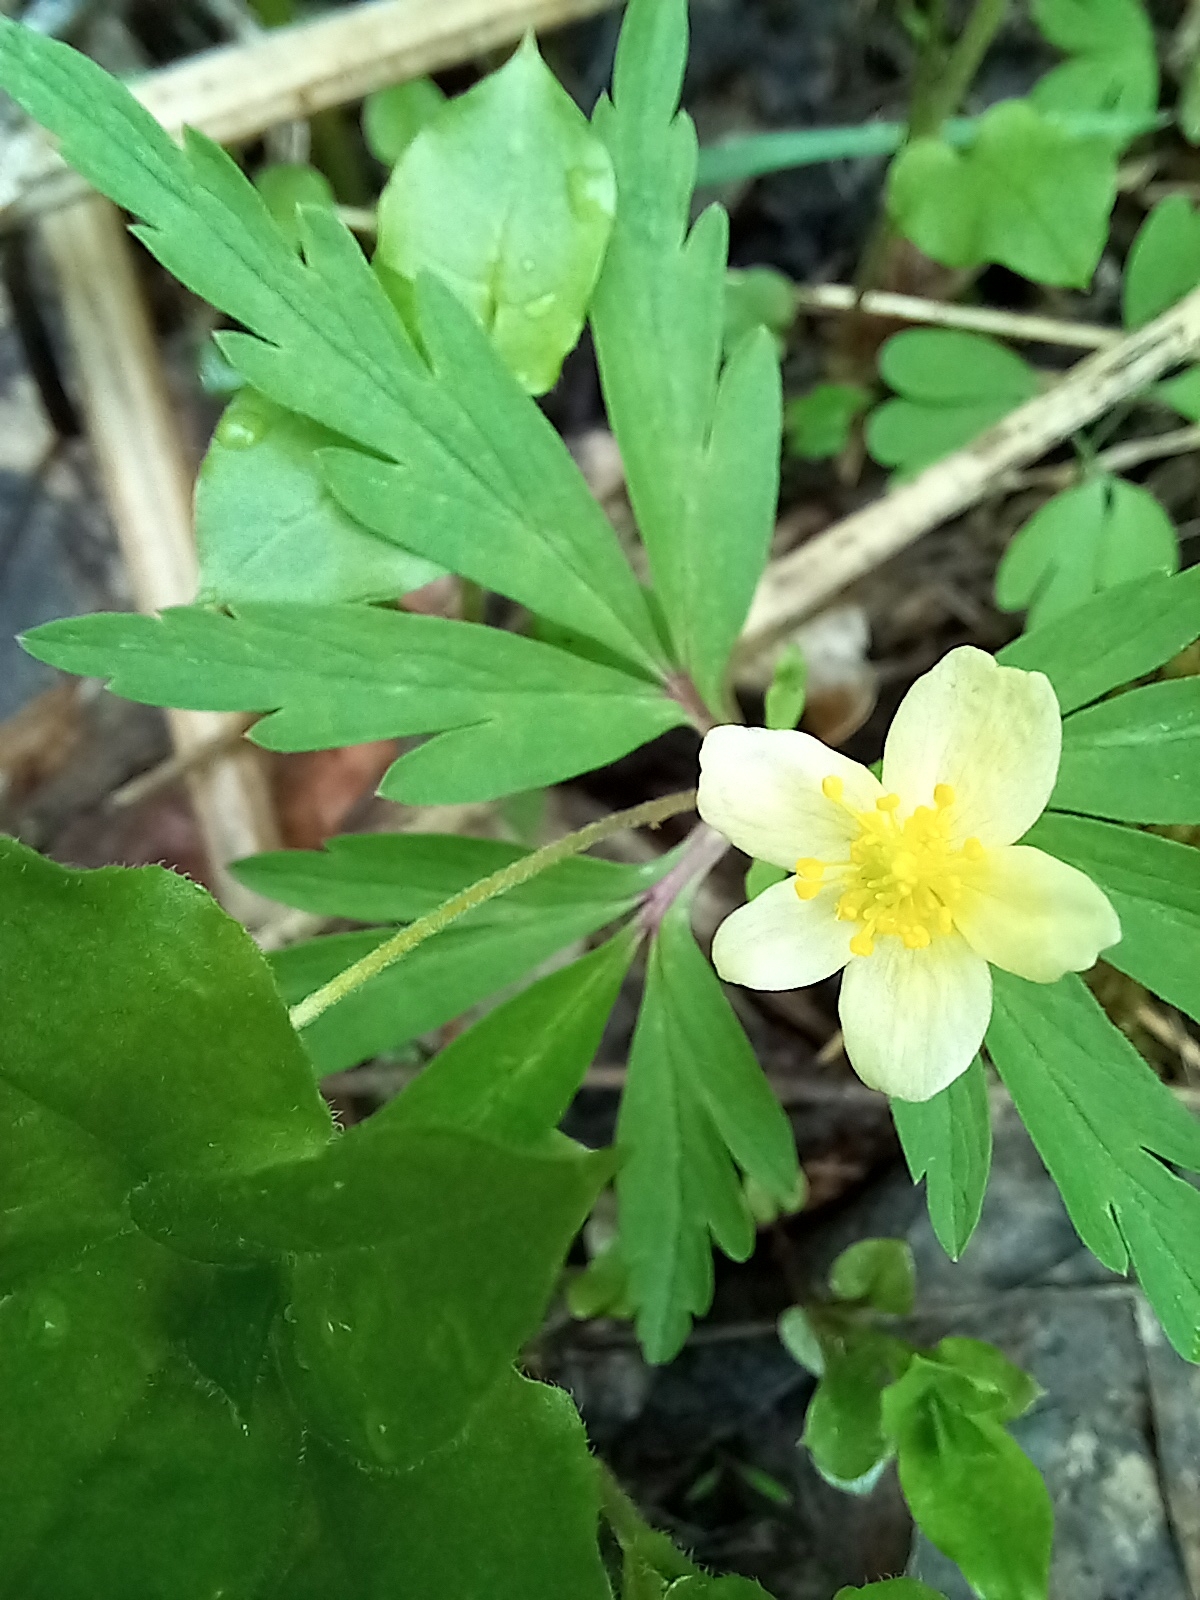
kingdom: Plantae
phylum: Tracheophyta
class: Magnoliopsida
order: Ranunculales
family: Ranunculaceae
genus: Anemone
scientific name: Anemone uralensis
